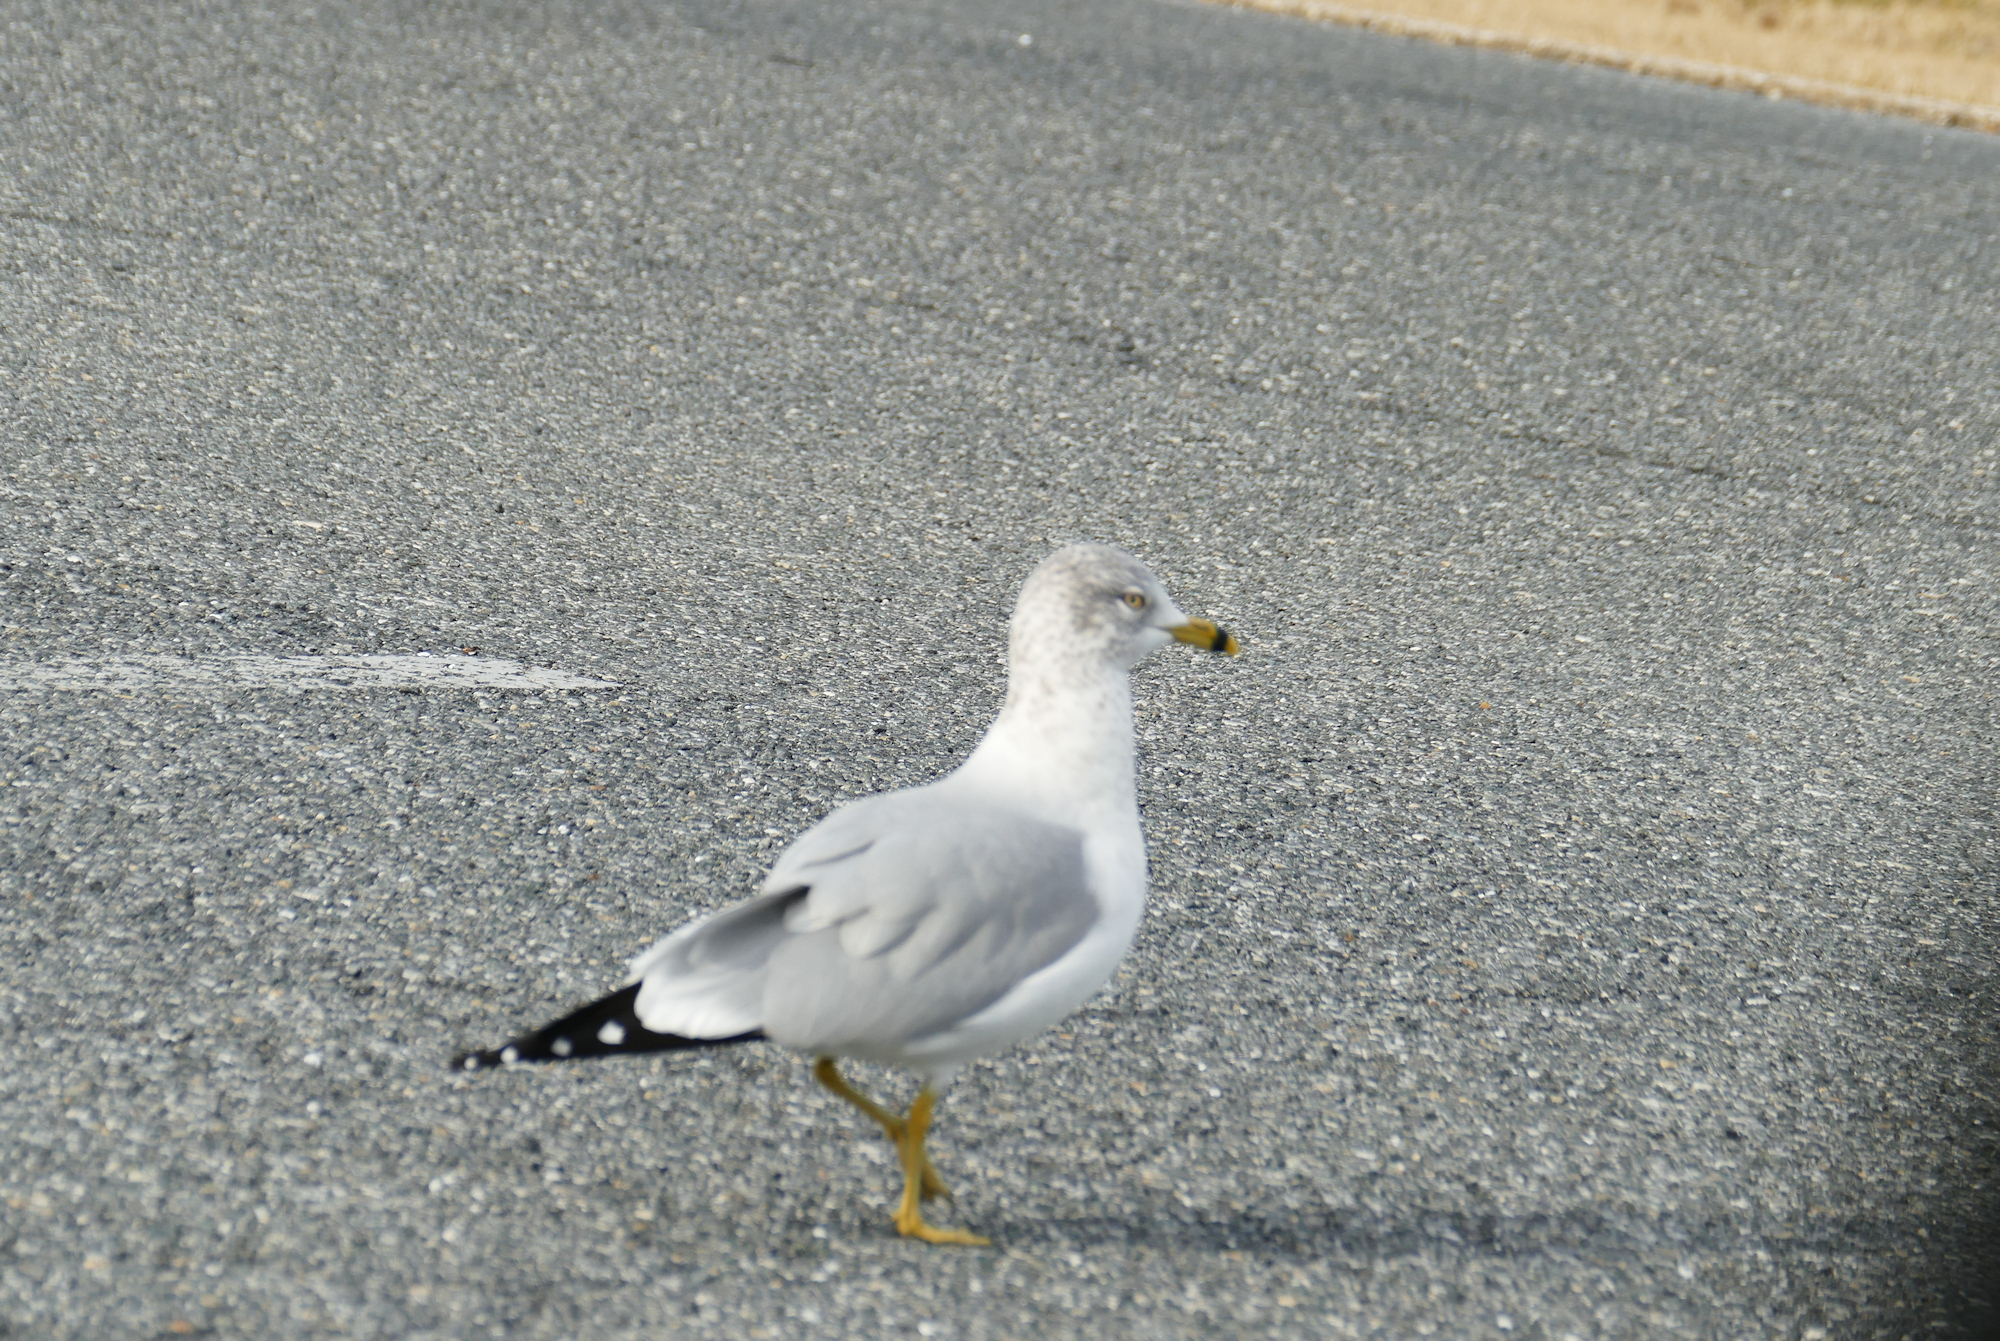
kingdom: Animalia
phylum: Chordata
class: Aves
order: Charadriiformes
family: Laridae
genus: Larus
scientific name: Larus delawarensis
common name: Ring-billed gull
